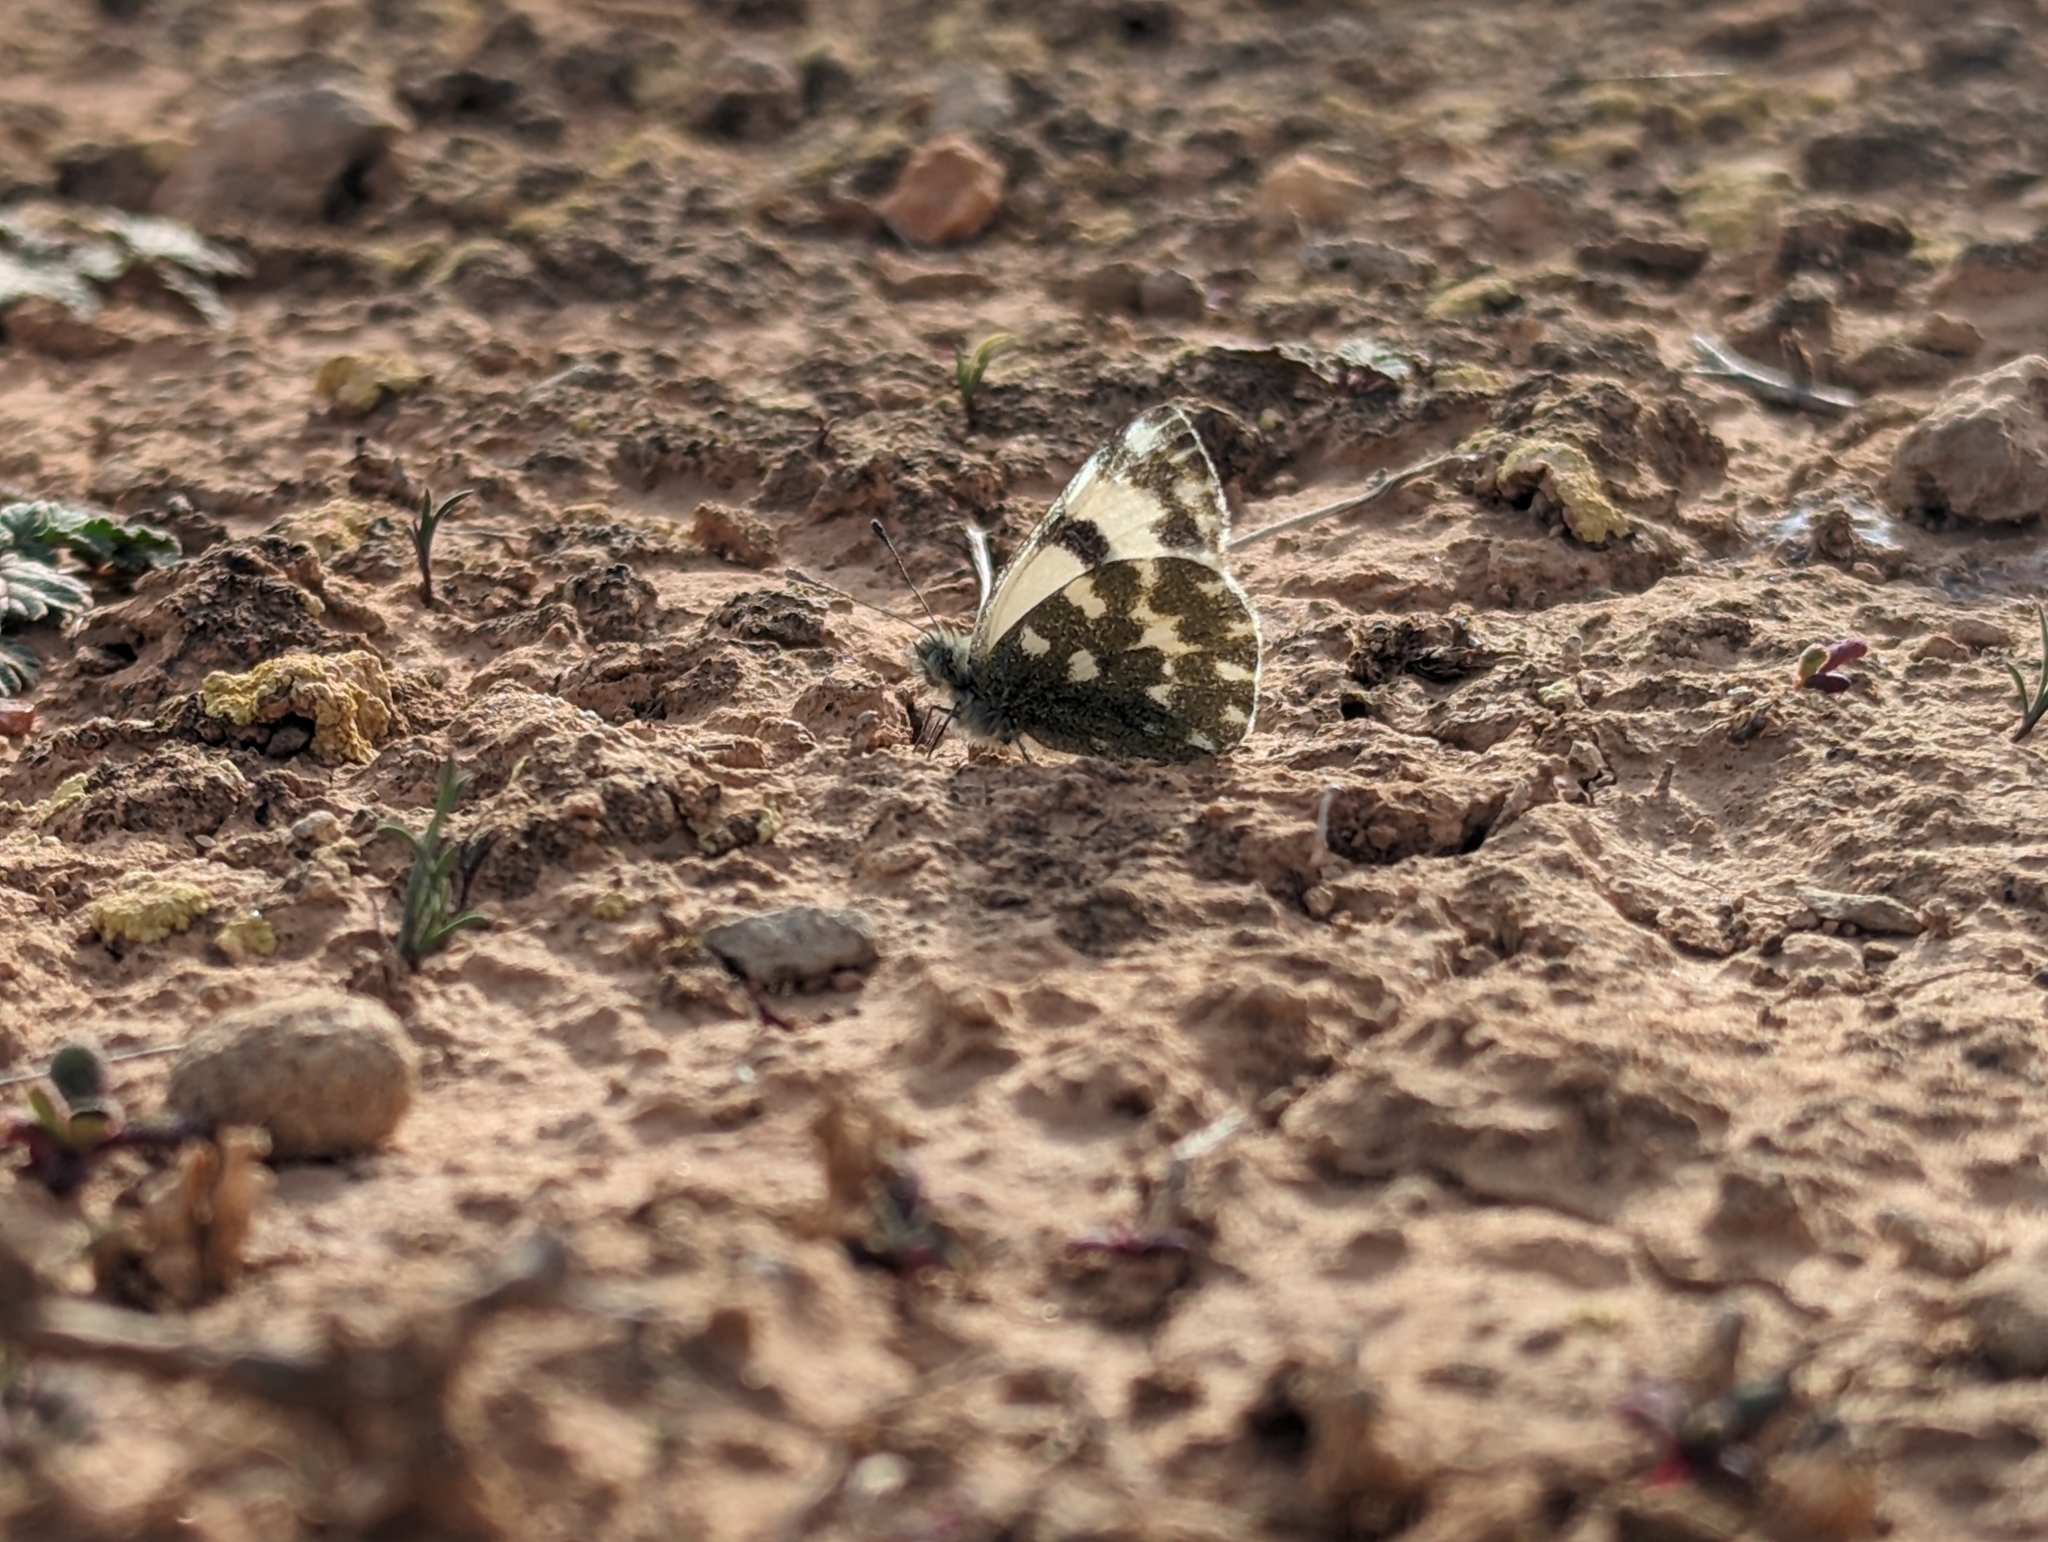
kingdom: Animalia
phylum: Arthropoda
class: Insecta
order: Lepidoptera
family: Pieridae
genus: Pontia
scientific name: Pontia daplidice
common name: Bath white
